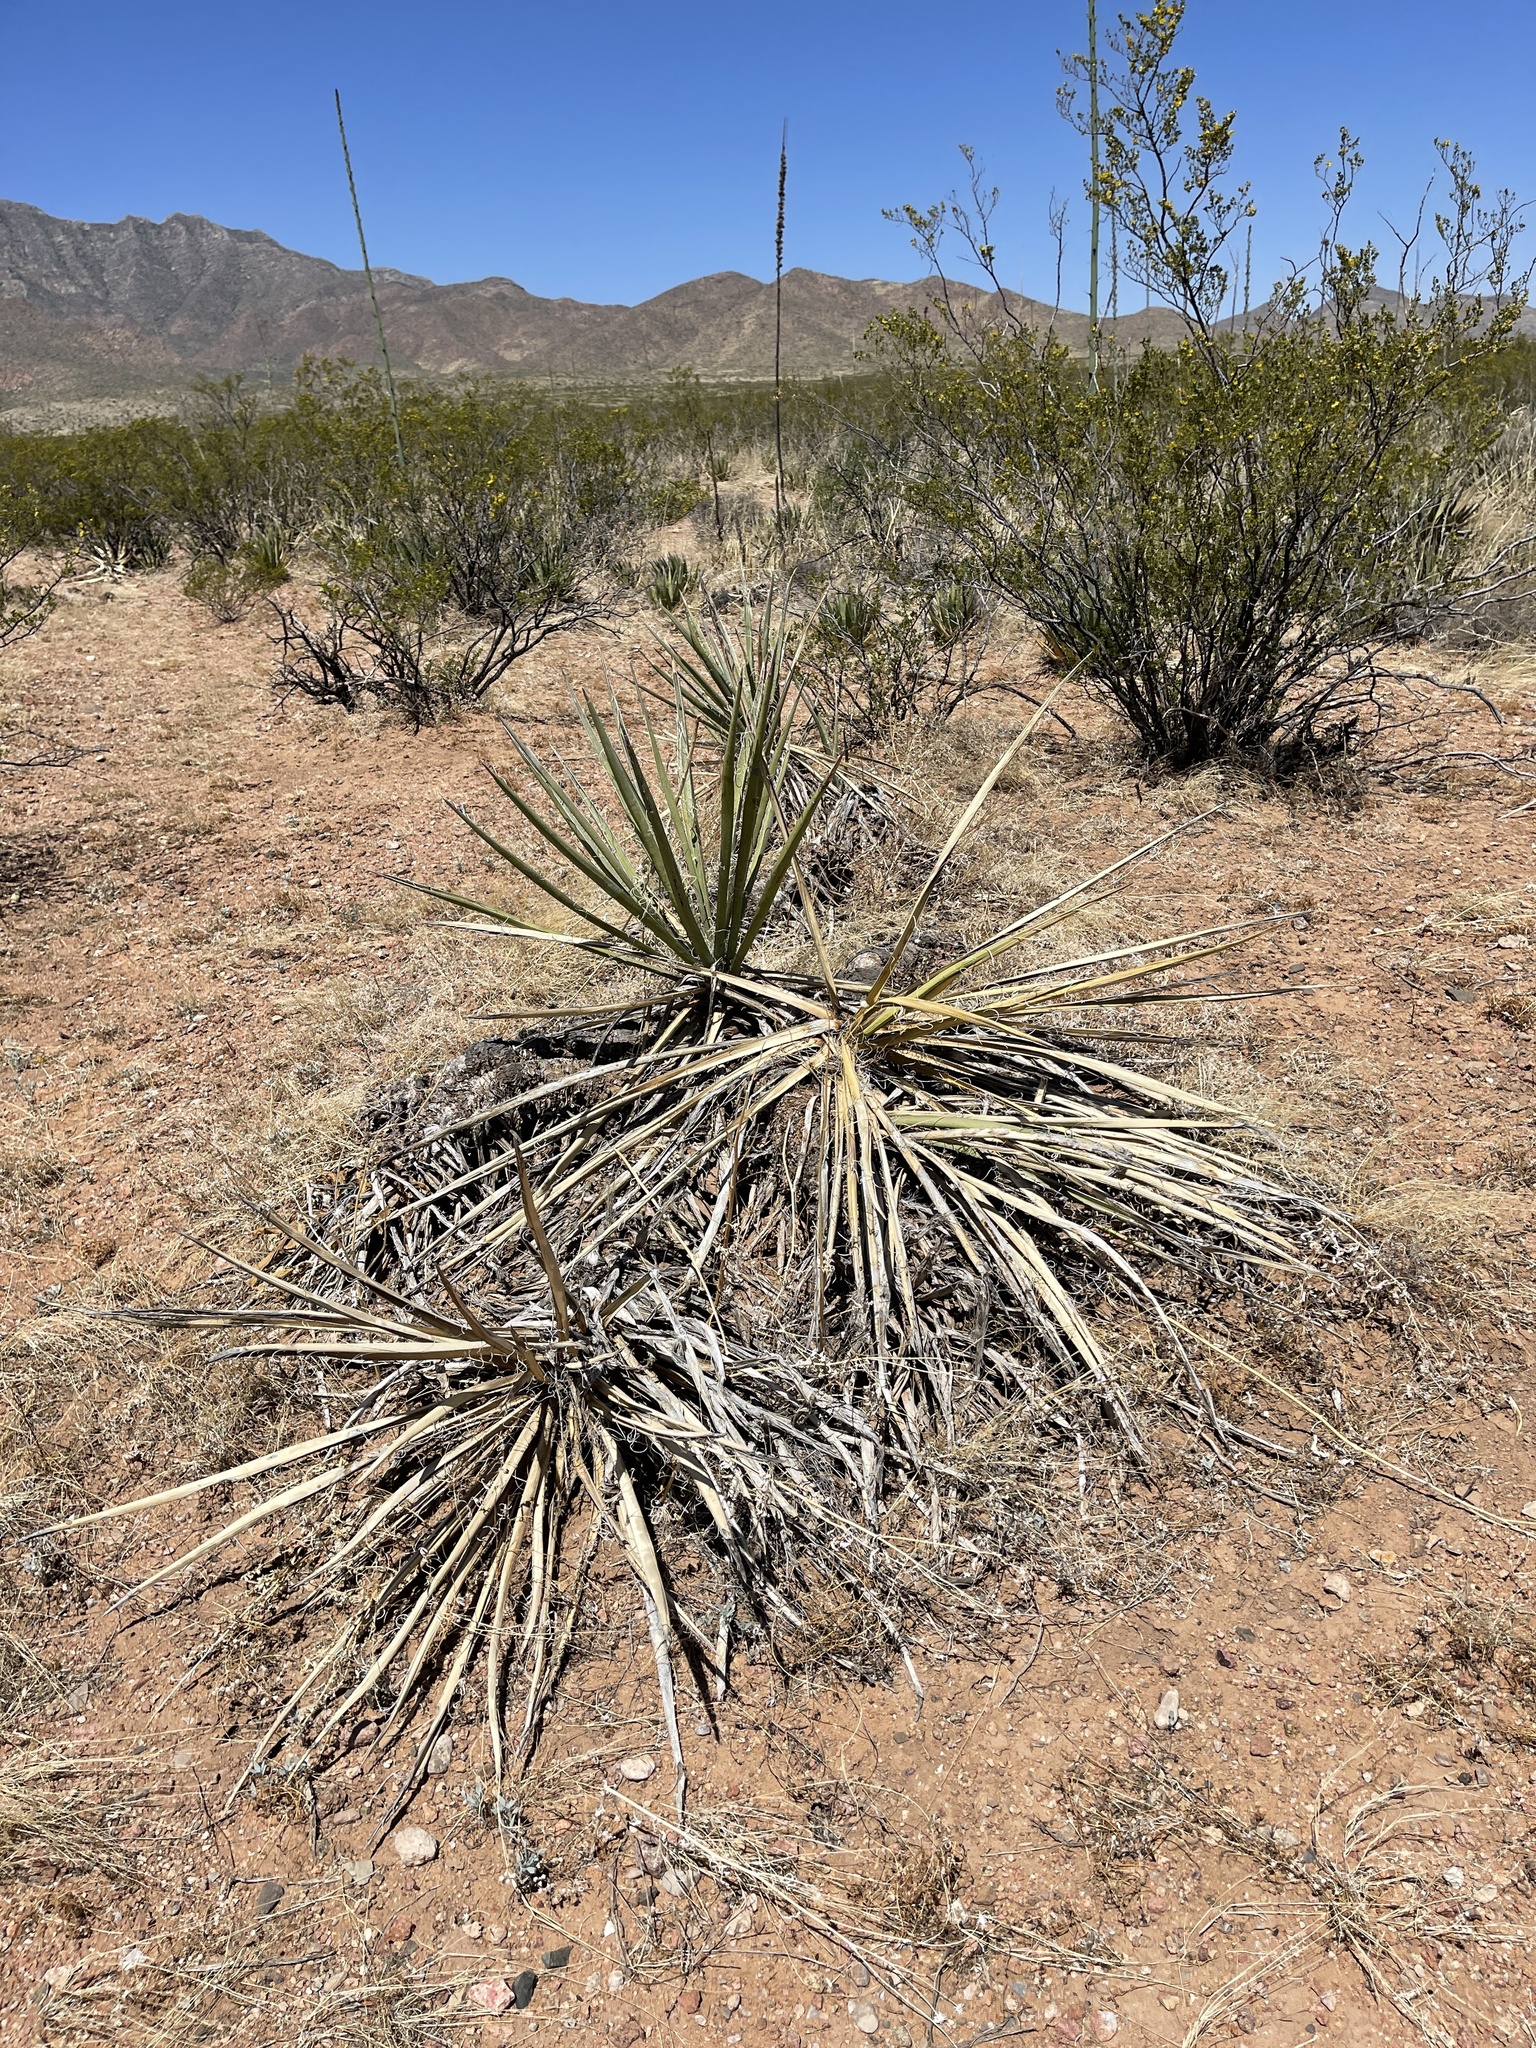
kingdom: Plantae
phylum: Tracheophyta
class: Liliopsida
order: Asparagales
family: Asparagaceae
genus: Yucca
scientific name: Yucca baccata
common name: Banana yucca
